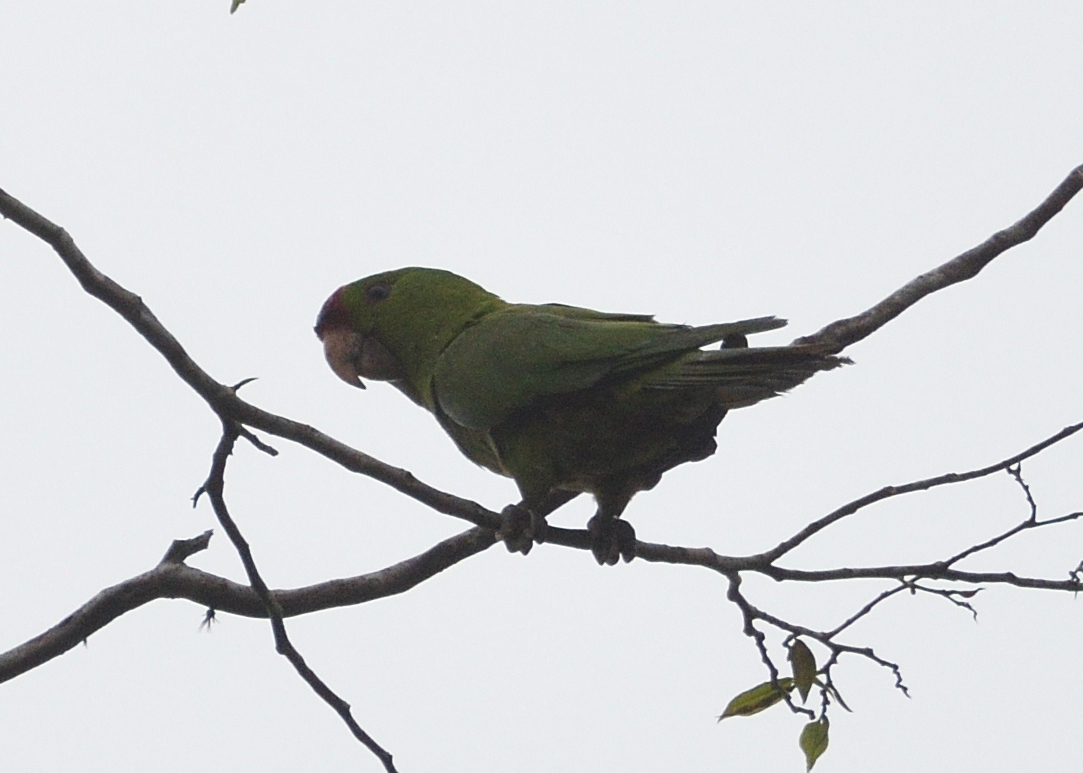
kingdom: Animalia
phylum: Chordata
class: Aves
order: Psittaciformes
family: Psittacidae
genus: Aratinga
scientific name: Aratinga wagleri
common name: Scarlet-fronted parakeet
